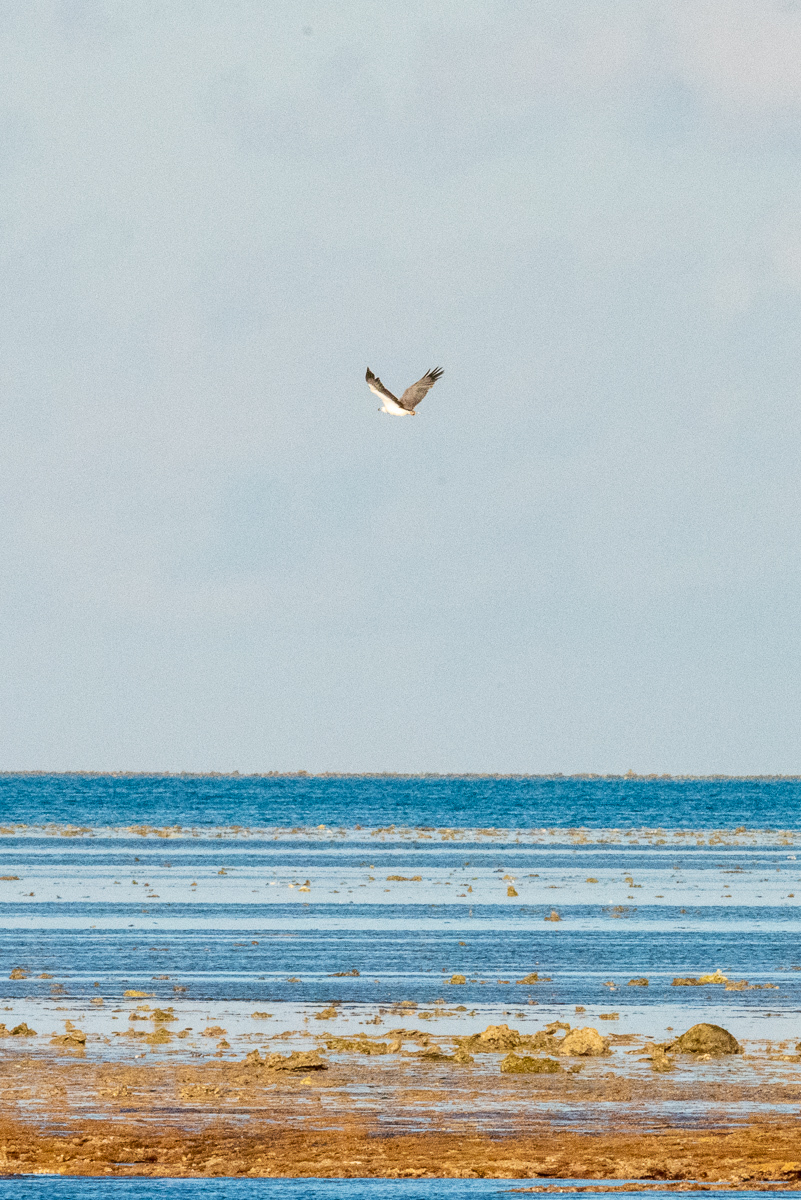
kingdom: Animalia
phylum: Chordata
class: Aves
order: Accipitriformes
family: Accipitridae
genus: Haliaeetus
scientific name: Haliaeetus leucogaster
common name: White-bellied sea eagle
